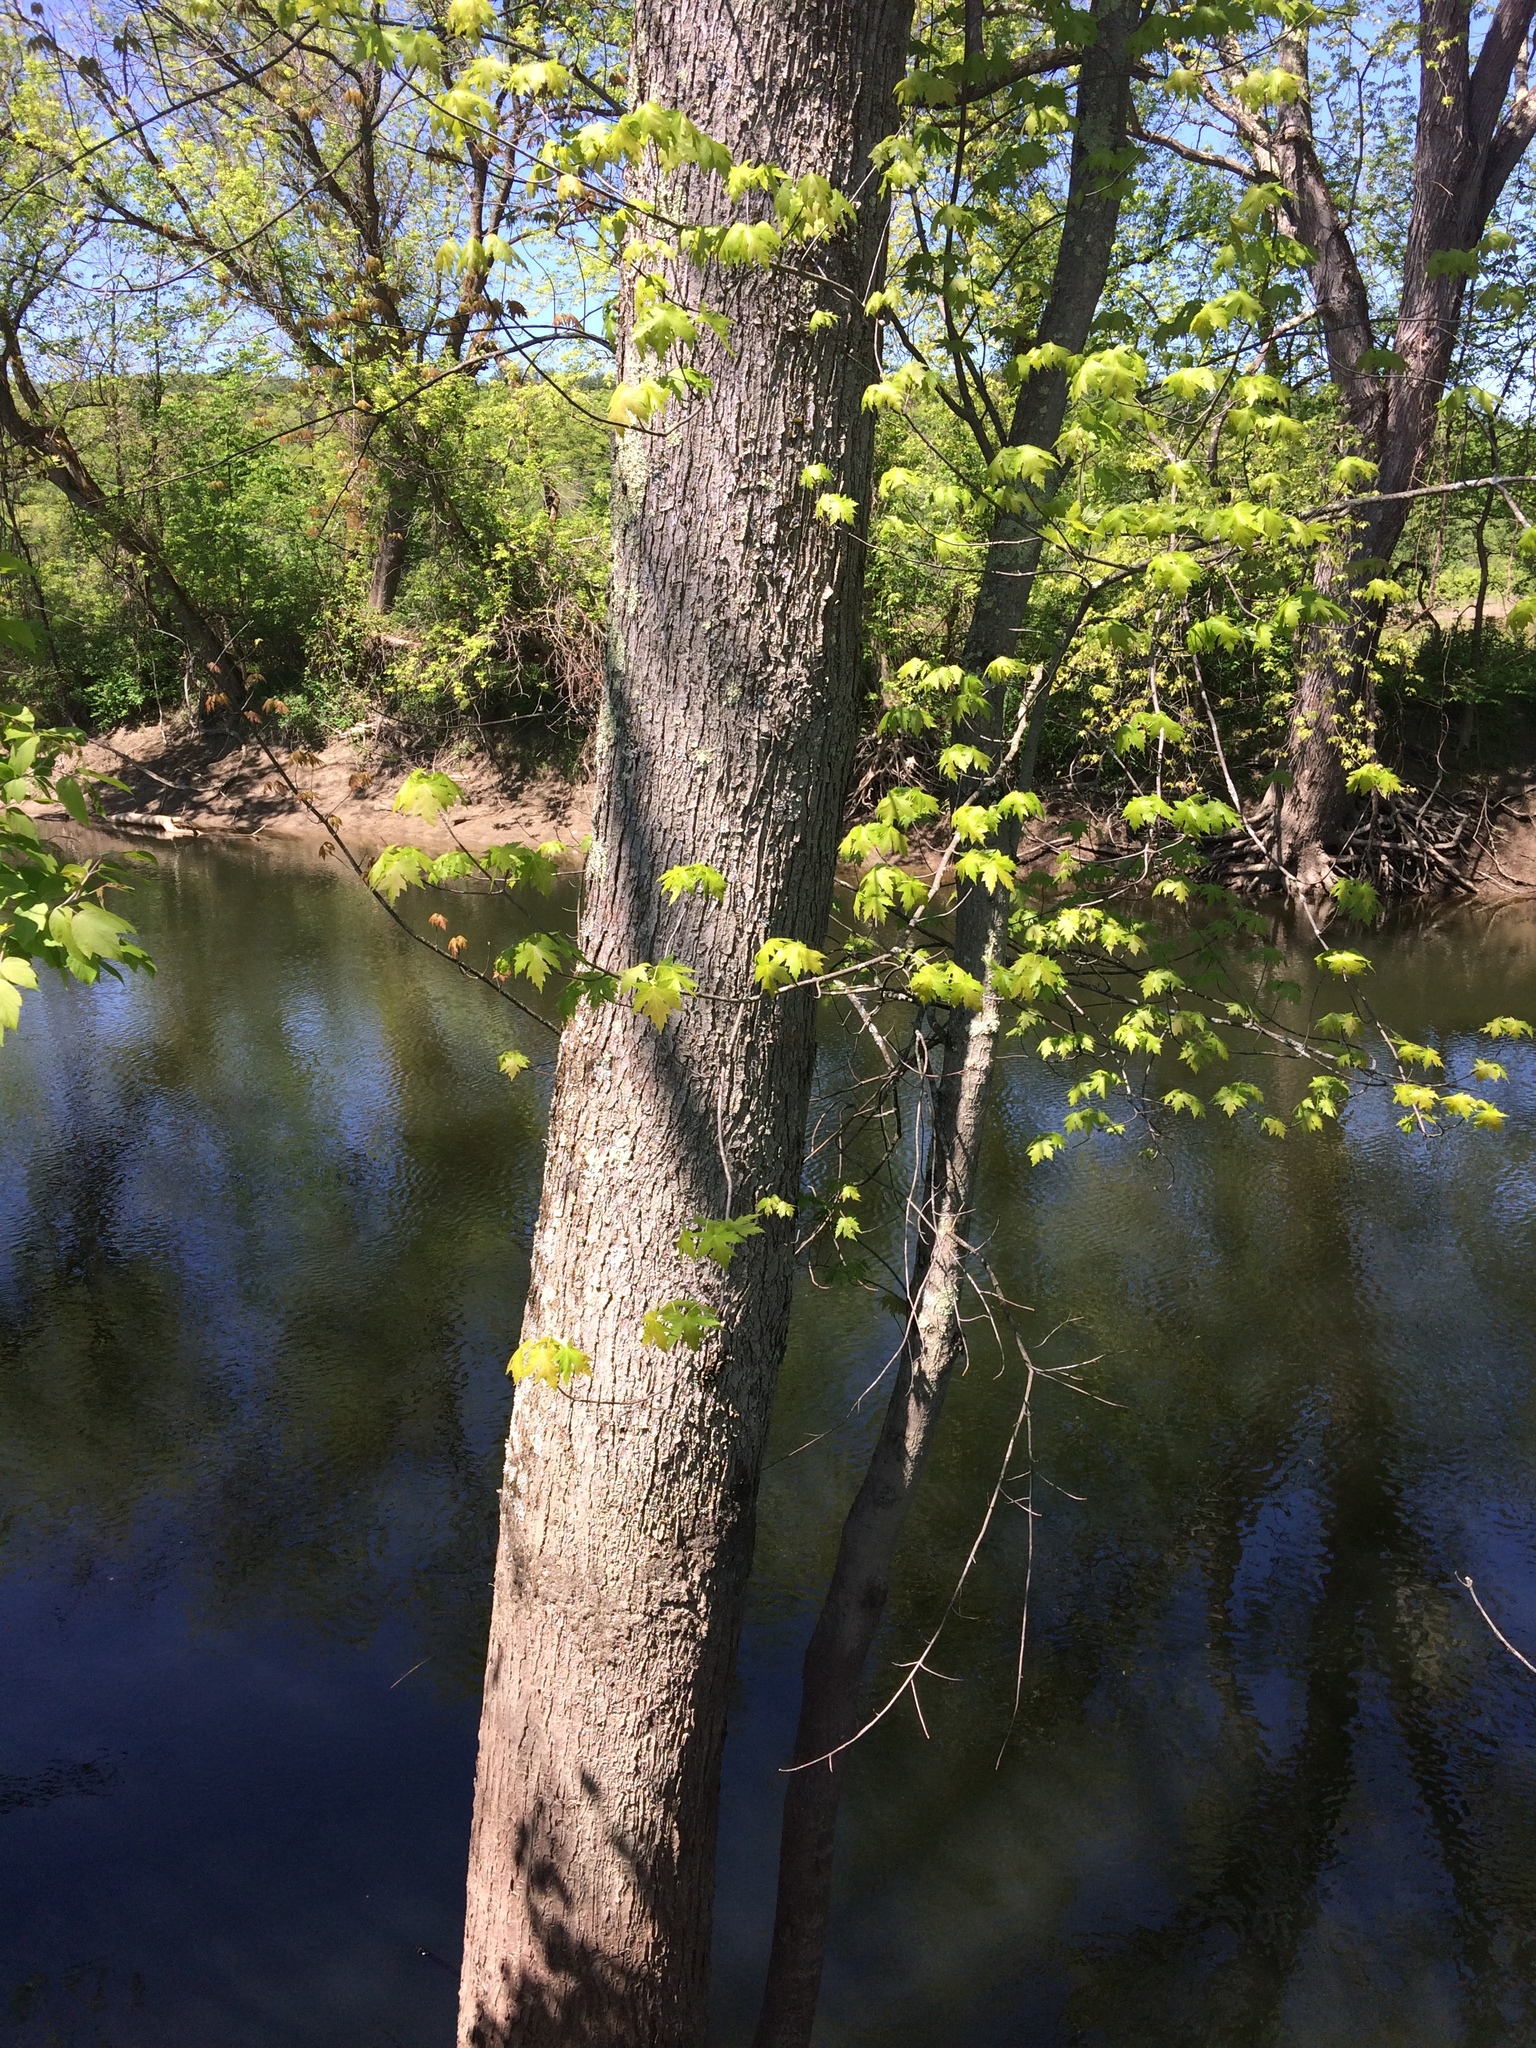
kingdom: Plantae
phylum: Tracheophyta
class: Magnoliopsida
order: Sapindales
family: Sapindaceae
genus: Acer
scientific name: Acer saccharinum
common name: Silver maple
